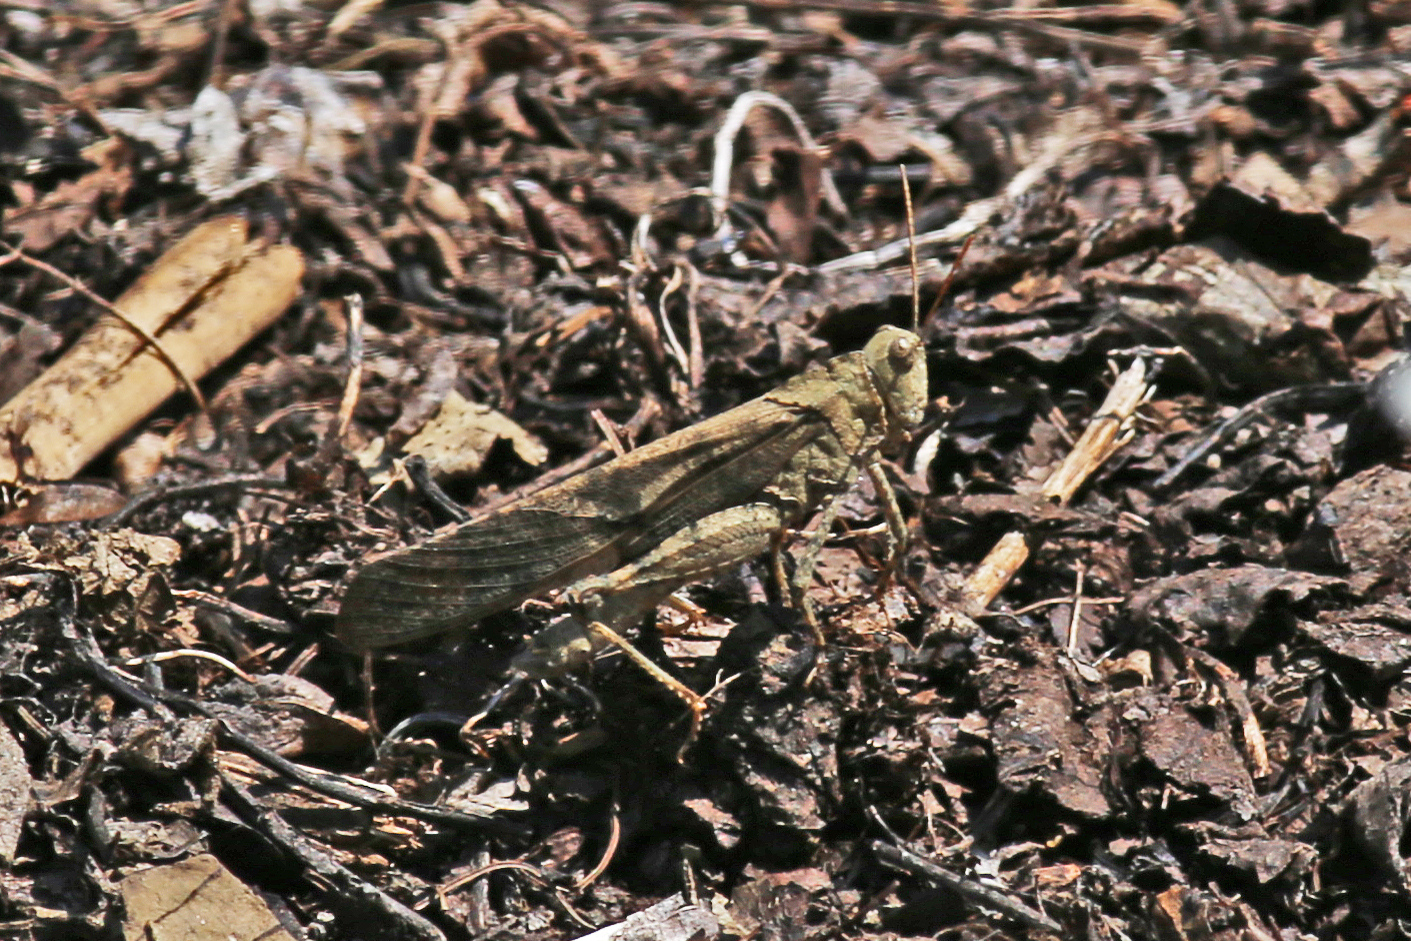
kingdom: Animalia
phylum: Arthropoda
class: Insecta
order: Orthoptera
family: Acrididae
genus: Dissosteira
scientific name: Dissosteira carolina
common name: Carolina grasshopper
